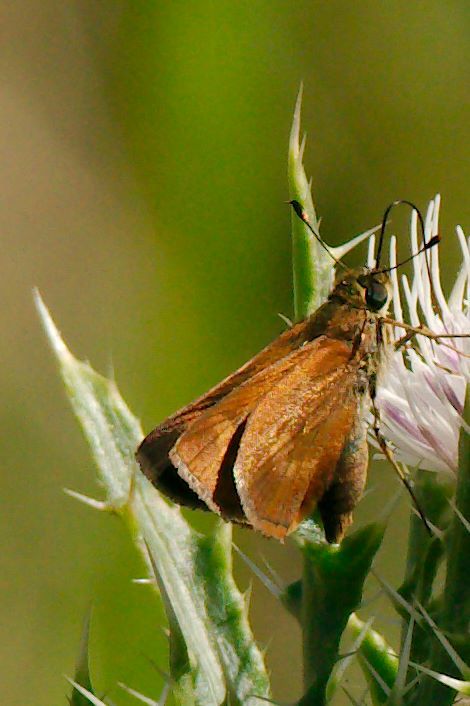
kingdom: Animalia
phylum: Arthropoda
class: Insecta
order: Lepidoptera
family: Hesperiidae
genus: Polites
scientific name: Polites otho
